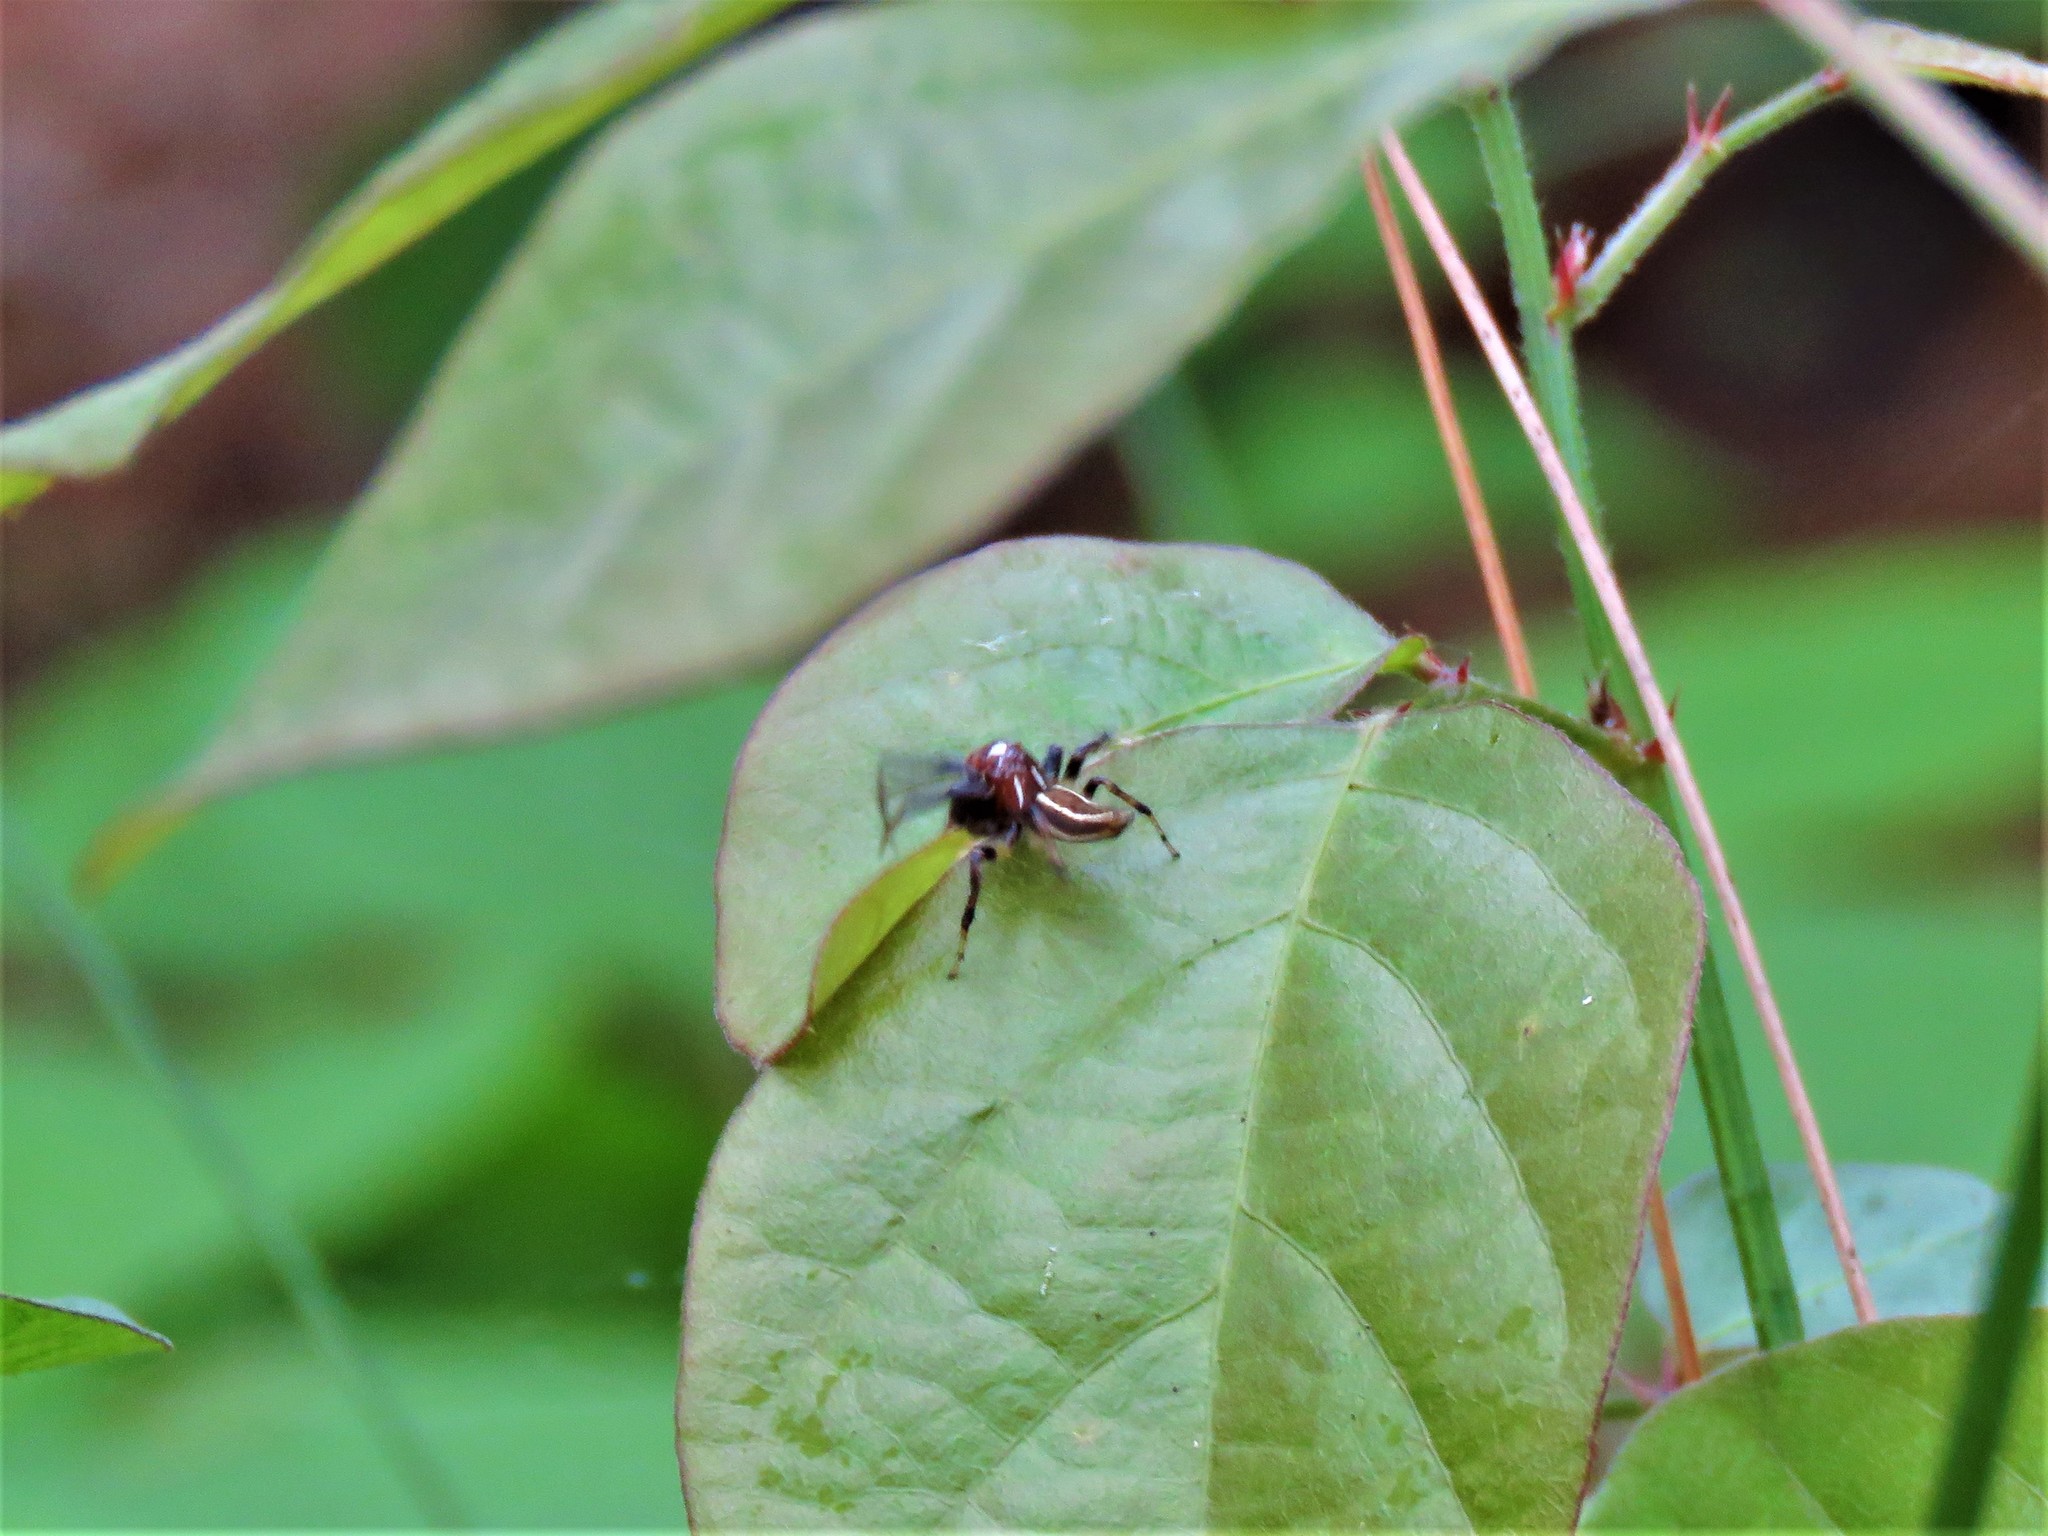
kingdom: Animalia
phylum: Arthropoda
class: Arachnida
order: Araneae
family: Salticidae
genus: Colonus
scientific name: Colonus sylvanus
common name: Jumping spiders
